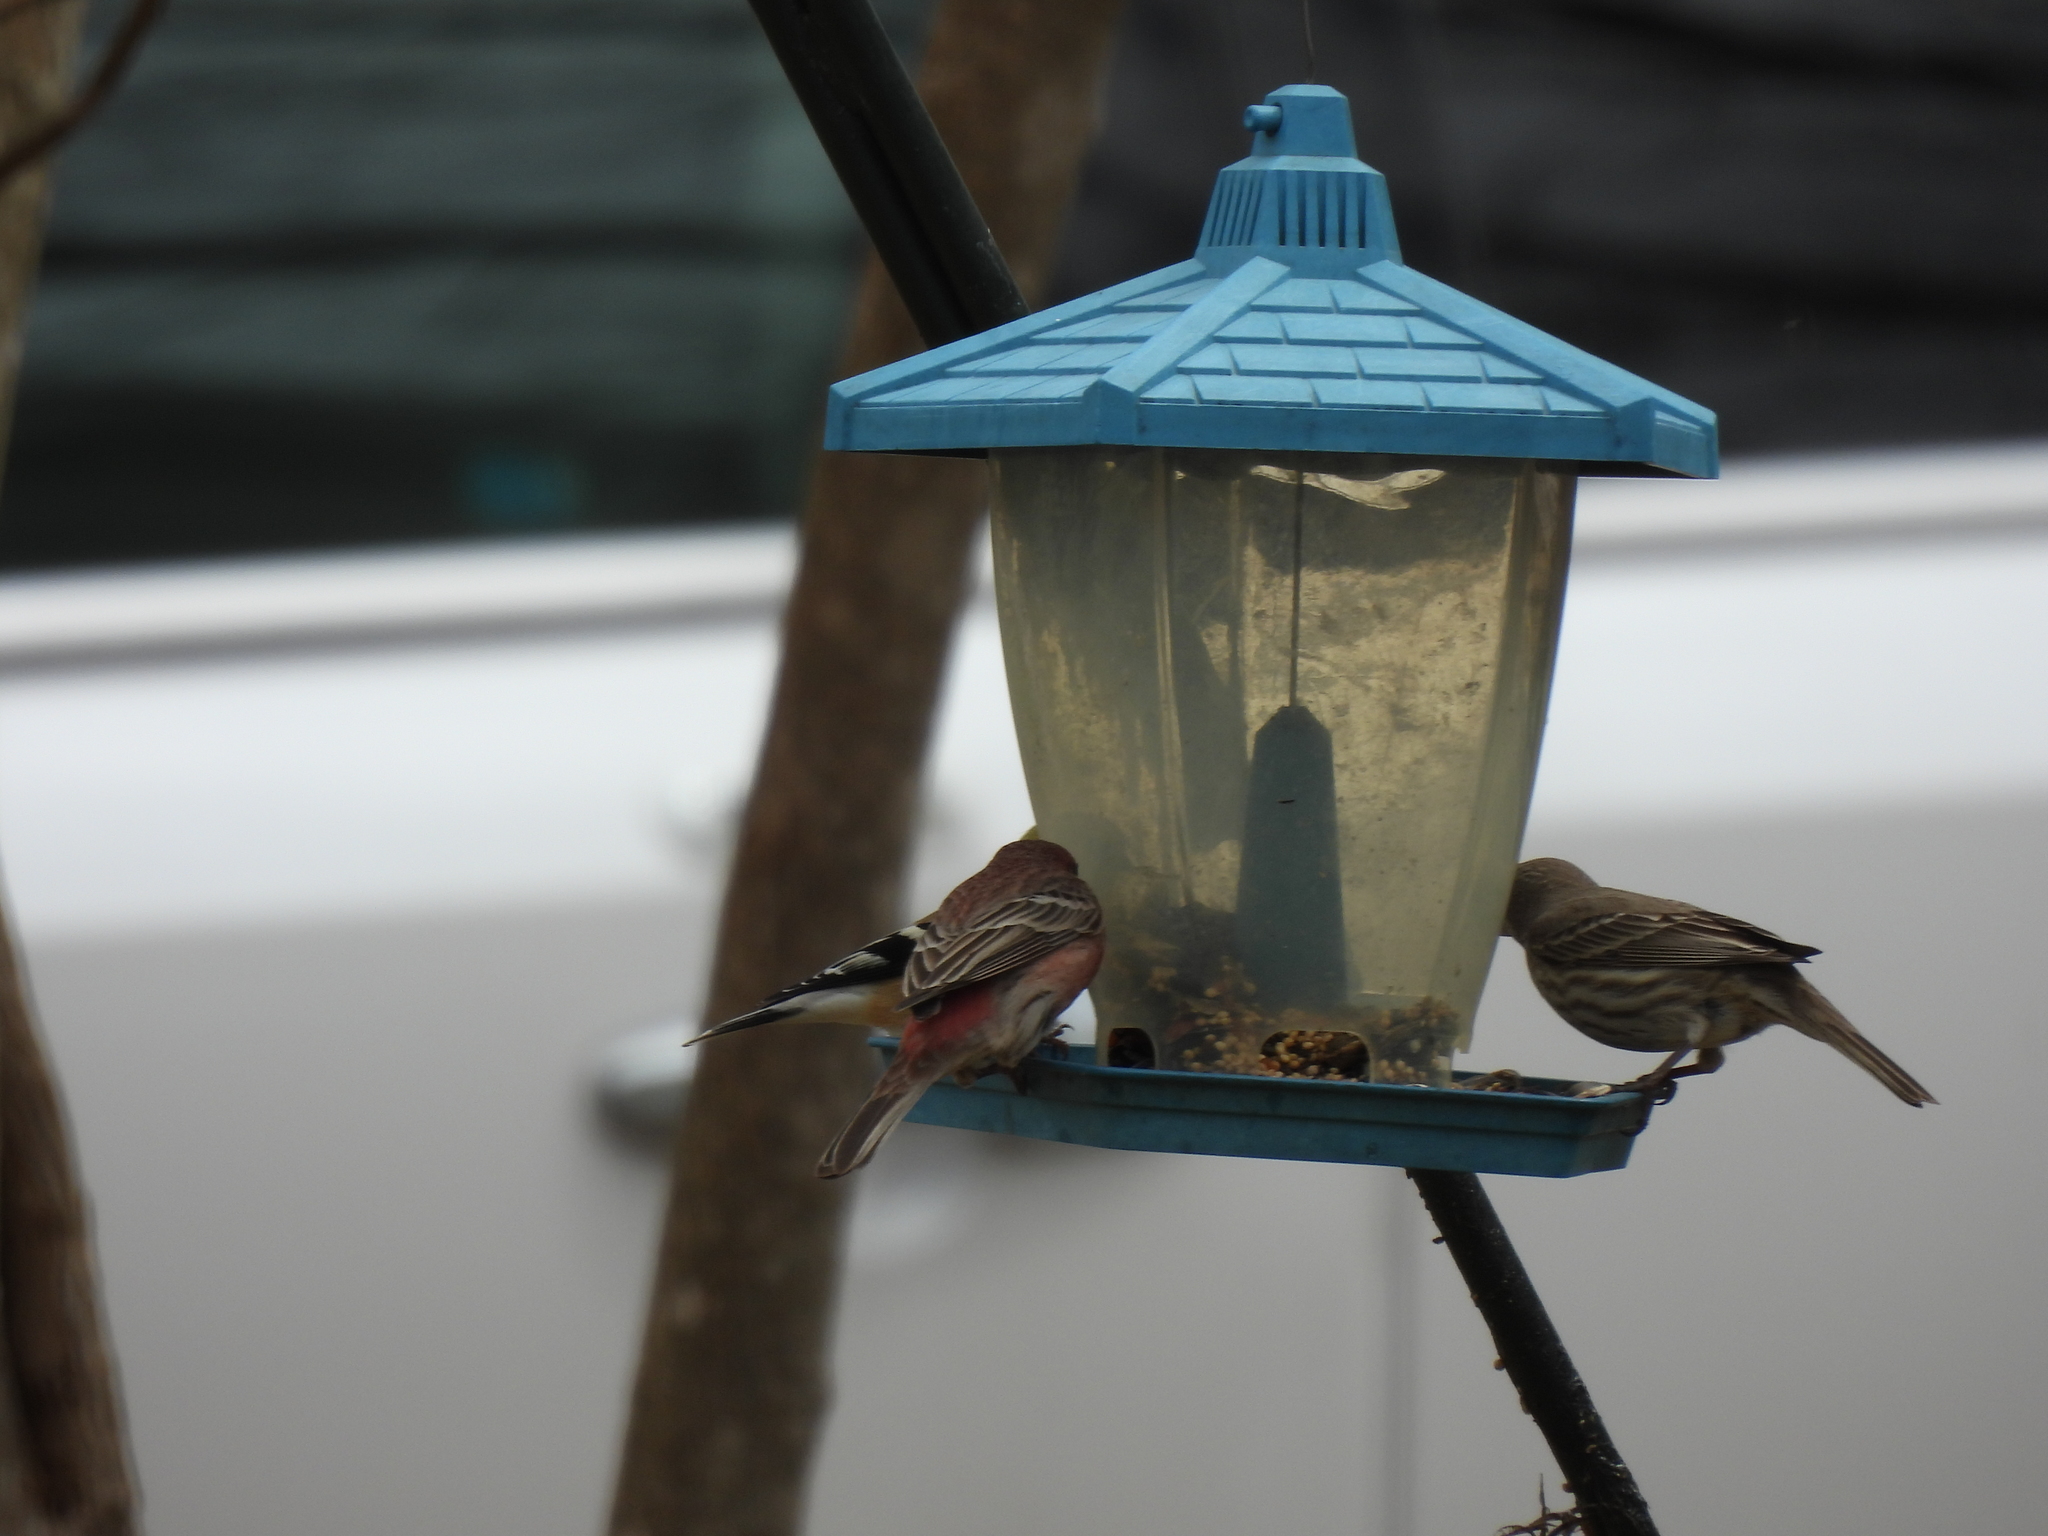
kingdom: Animalia
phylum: Chordata
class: Aves
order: Passeriformes
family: Fringillidae
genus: Haemorhous
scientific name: Haemorhous mexicanus
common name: House finch
